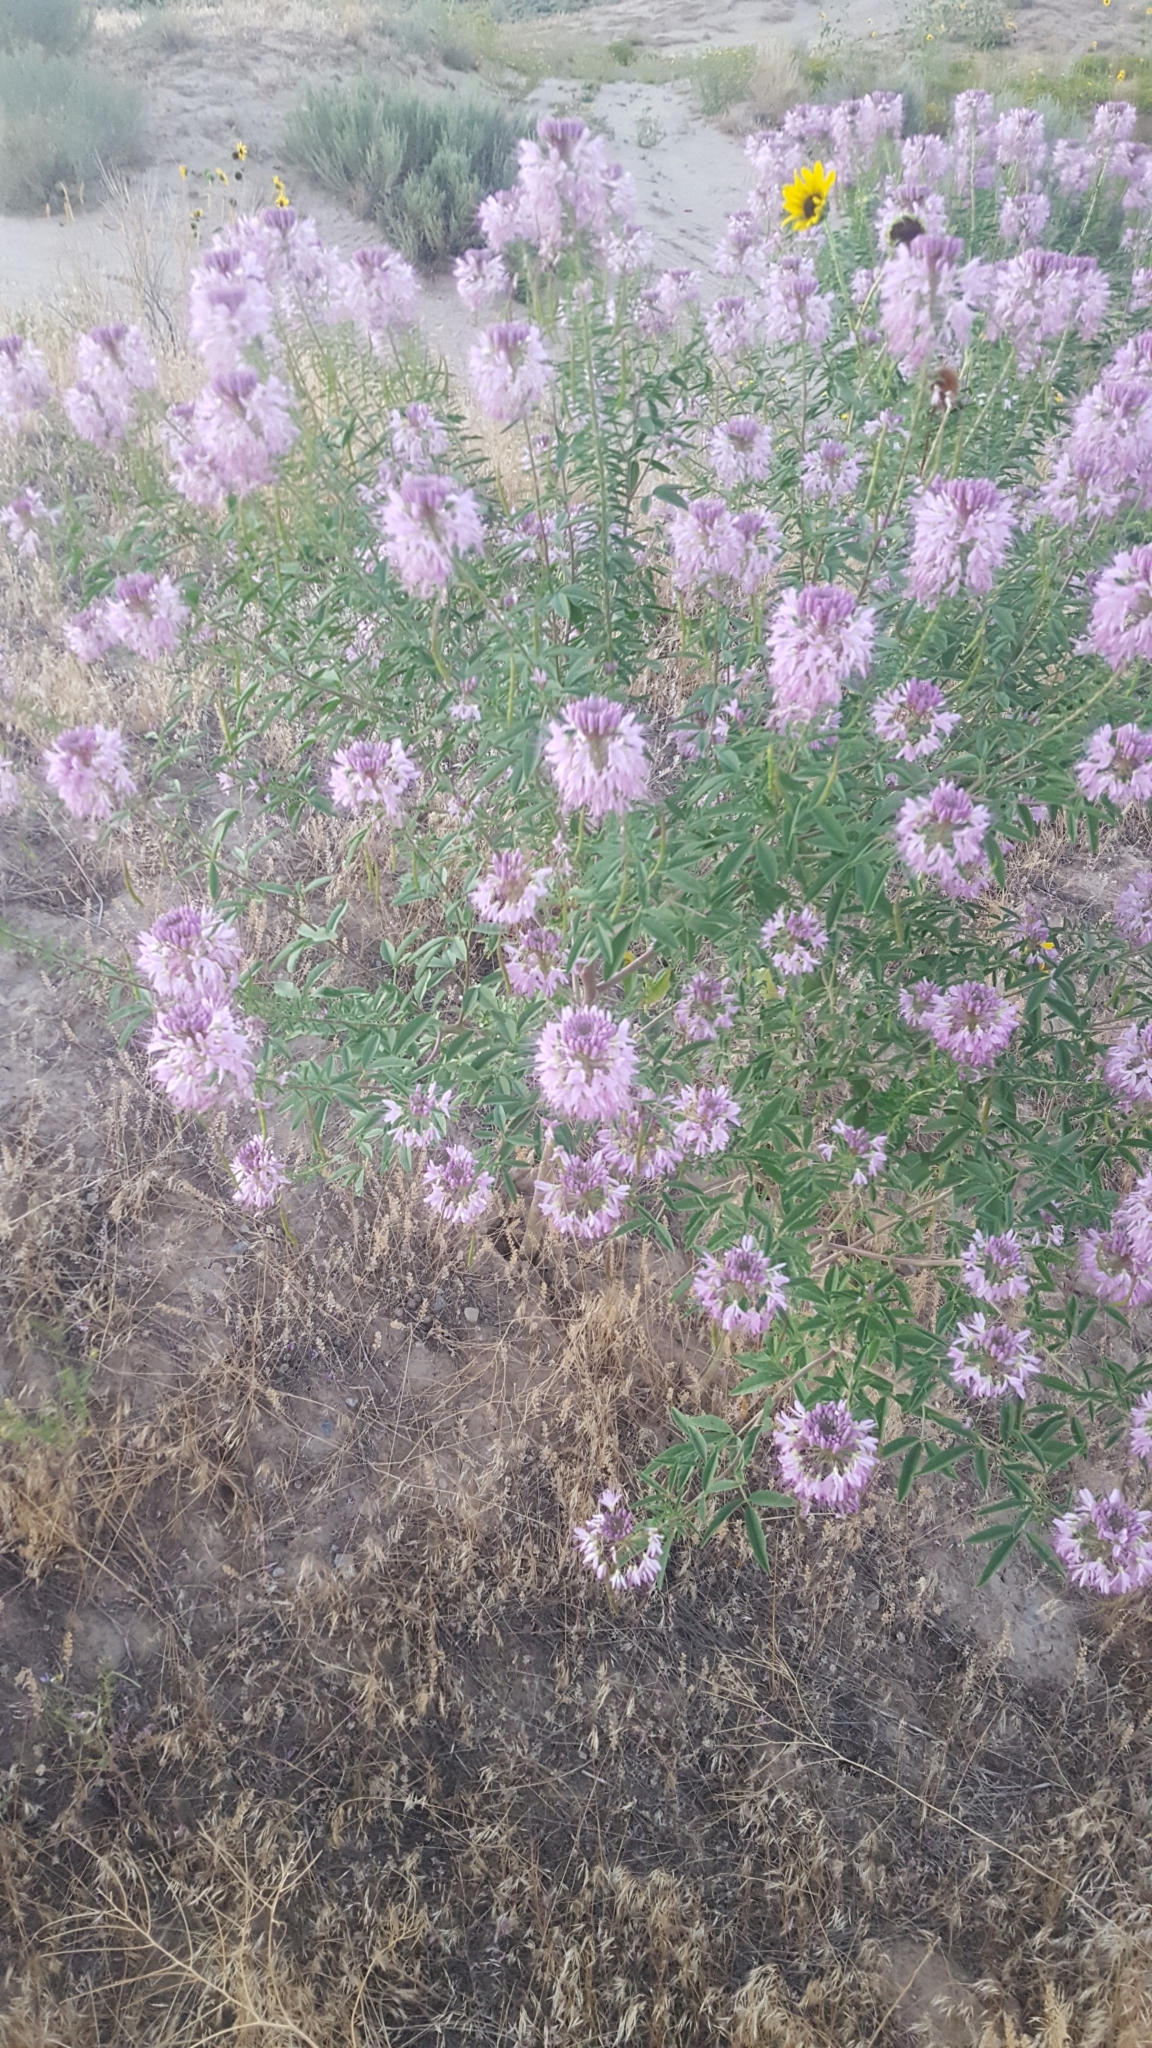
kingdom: Plantae
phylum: Tracheophyta
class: Magnoliopsida
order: Brassicales
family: Cleomaceae
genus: Cleomella
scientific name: Cleomella serrulata
